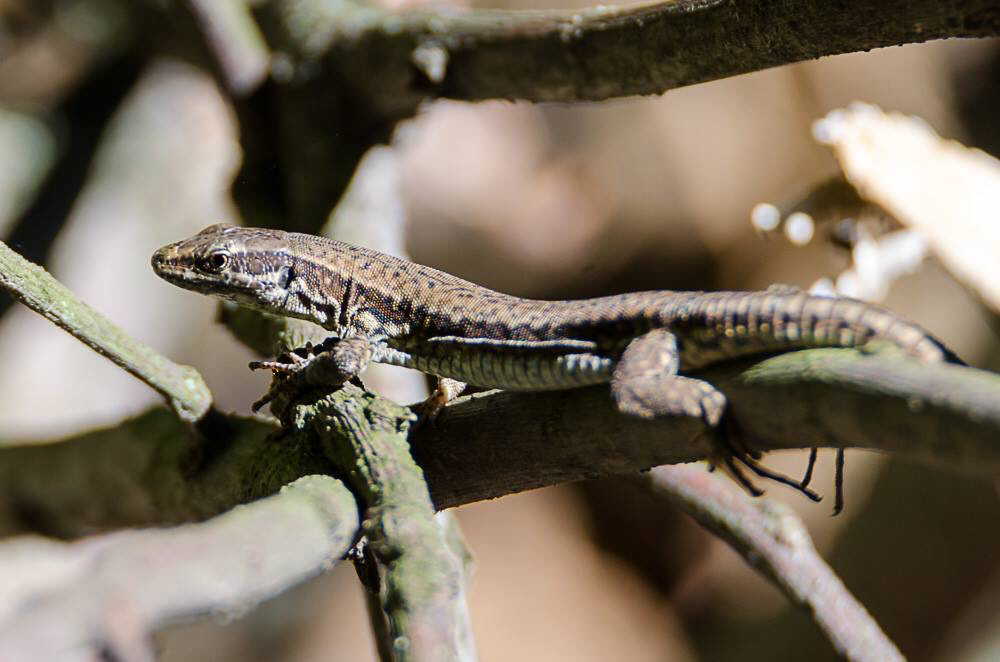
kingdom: Animalia
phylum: Chordata
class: Squamata
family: Lacertidae
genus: Podarcis
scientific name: Podarcis muralis
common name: Common wall lizard
